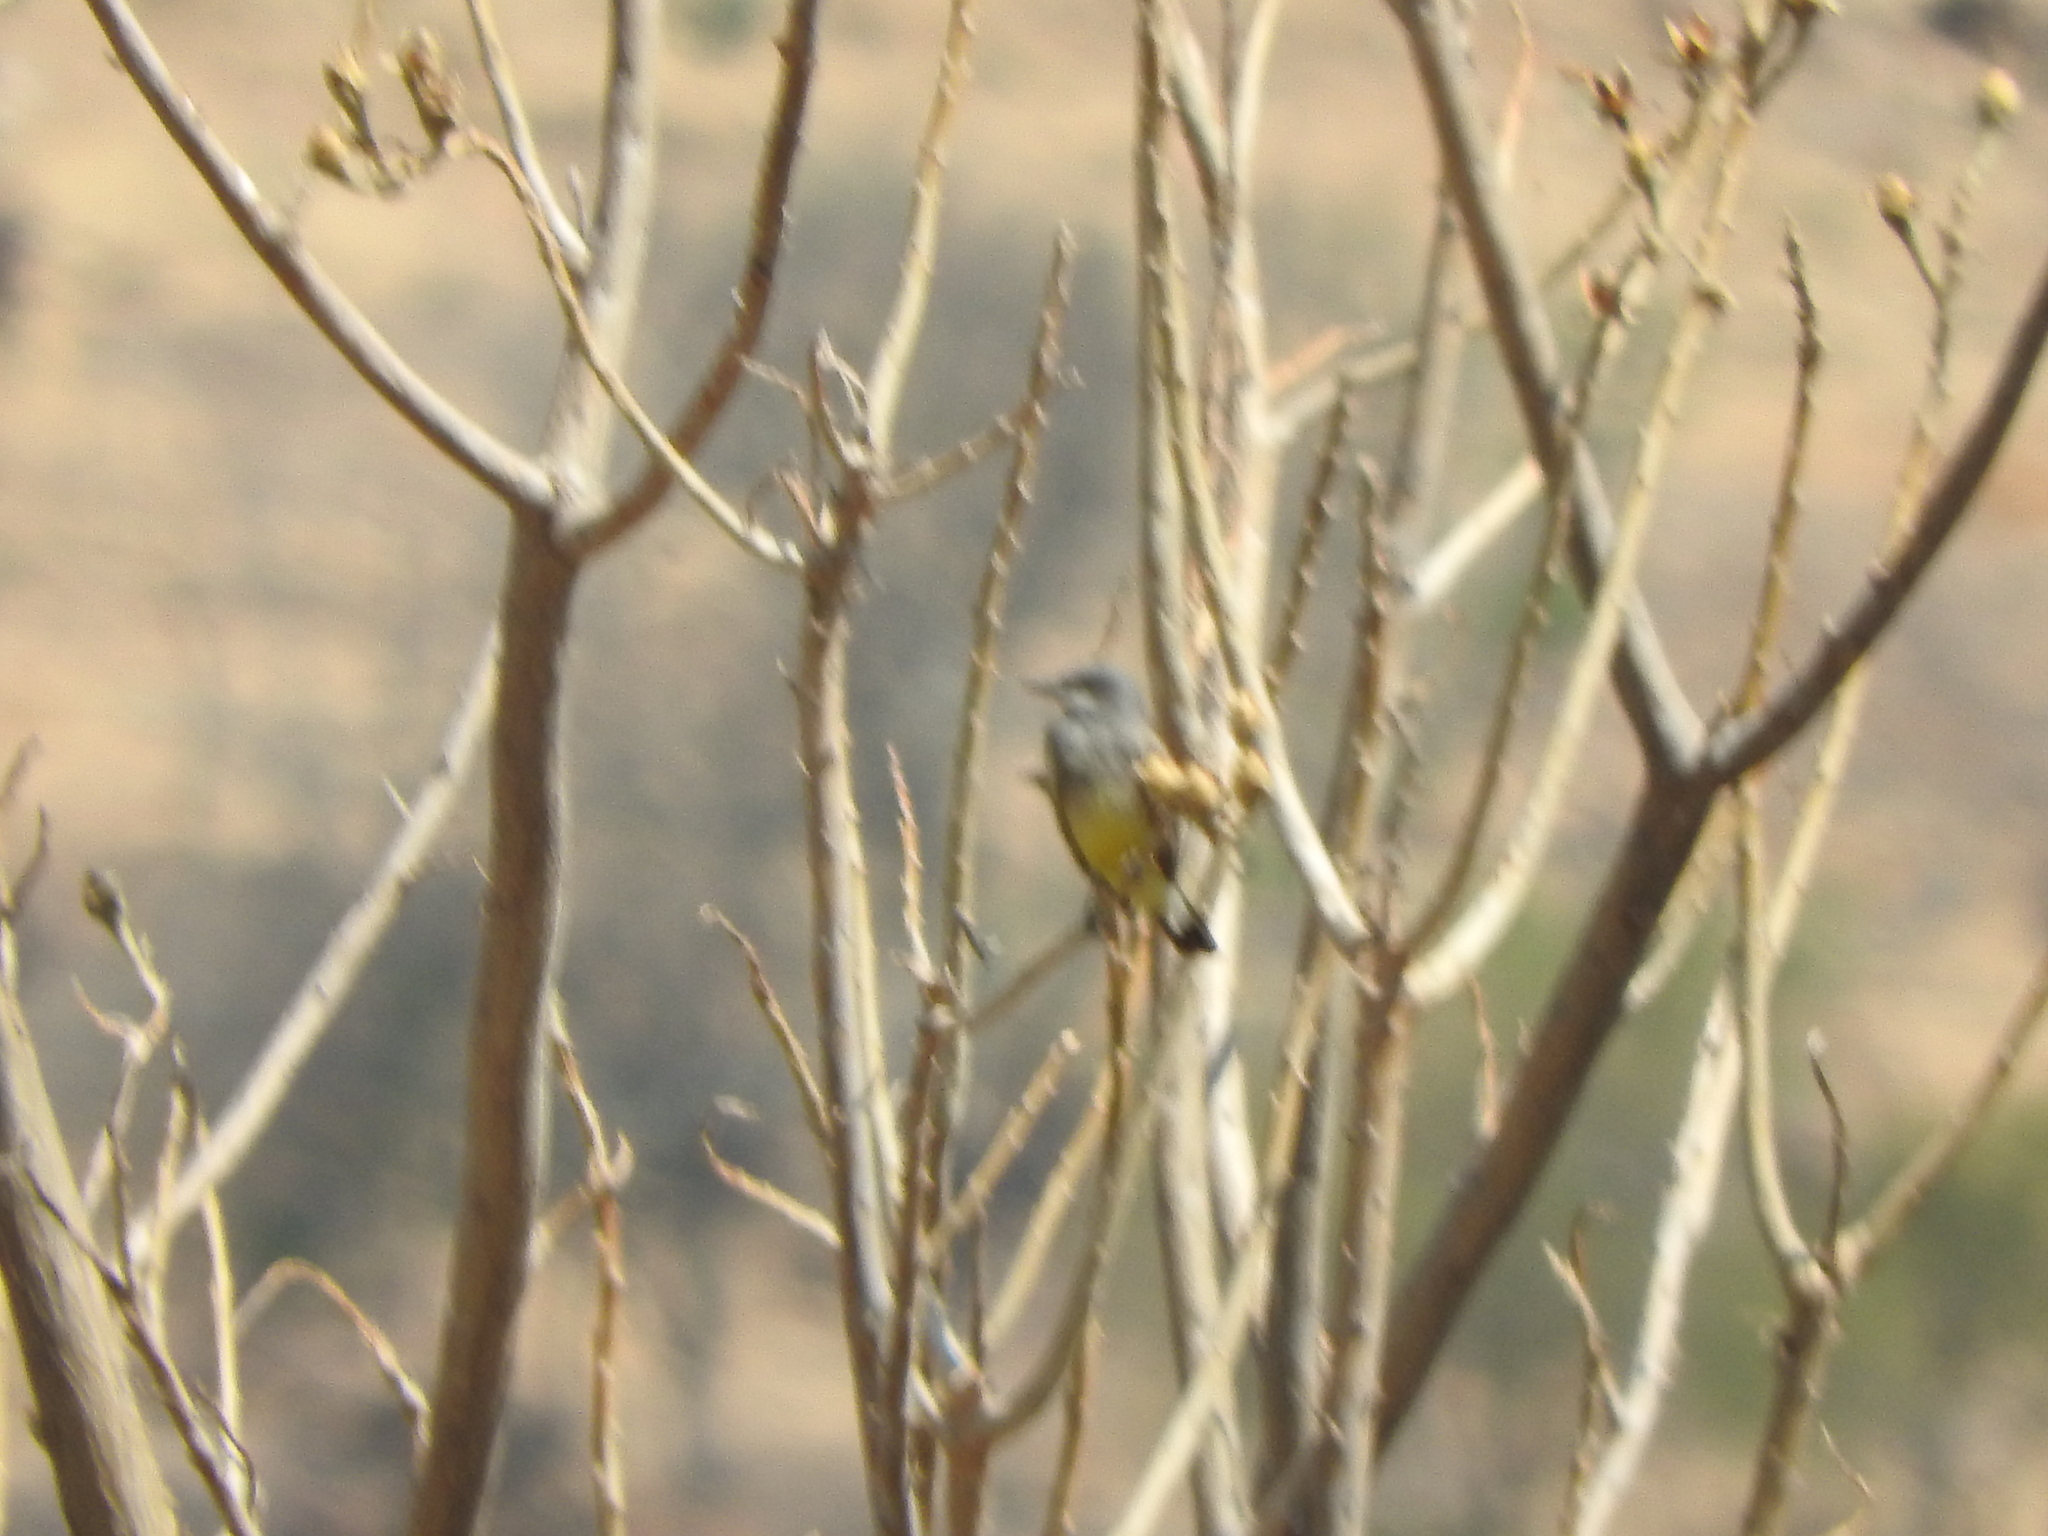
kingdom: Animalia
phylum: Chordata
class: Aves
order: Passeriformes
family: Tyrannidae
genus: Tyrannus
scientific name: Tyrannus vociferans
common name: Cassin's kingbird
